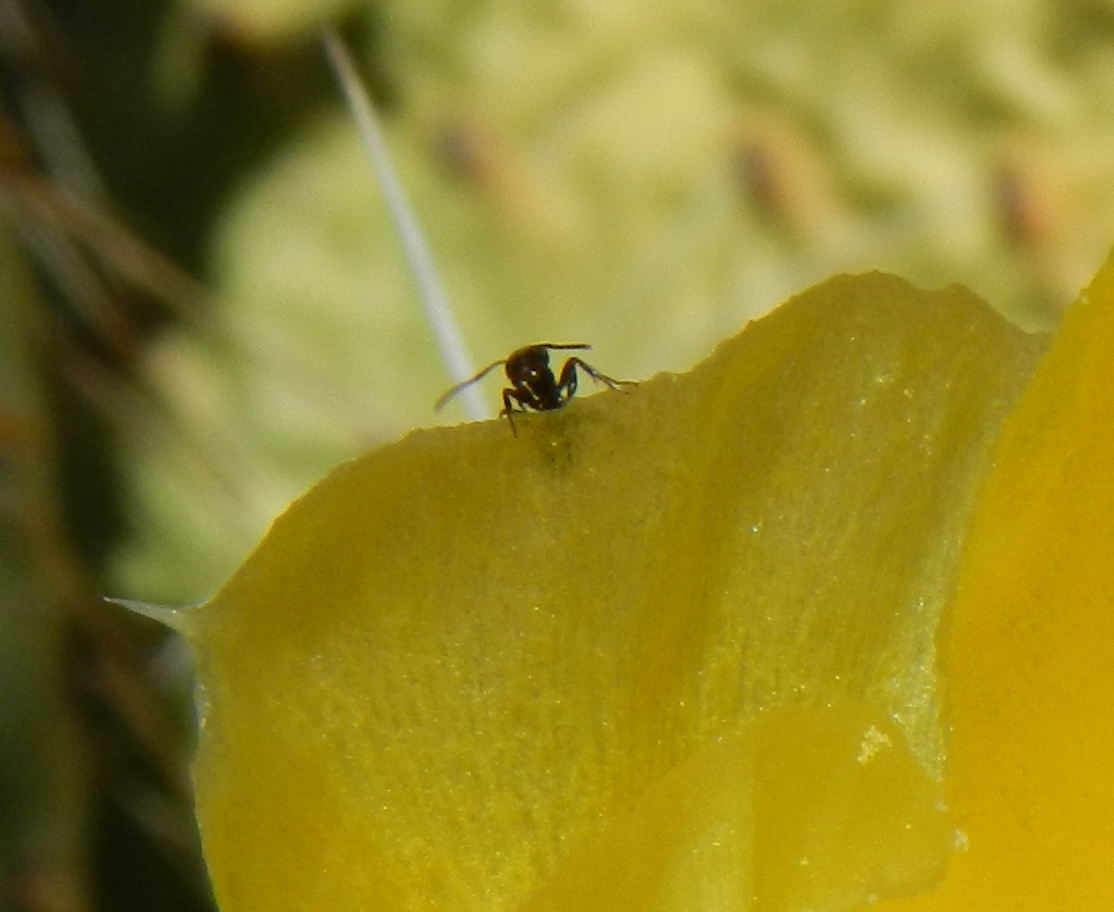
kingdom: Animalia
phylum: Arthropoda
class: Insecta
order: Hymenoptera
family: Formicidae
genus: Liometopum
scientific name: Liometopum luctuosum
